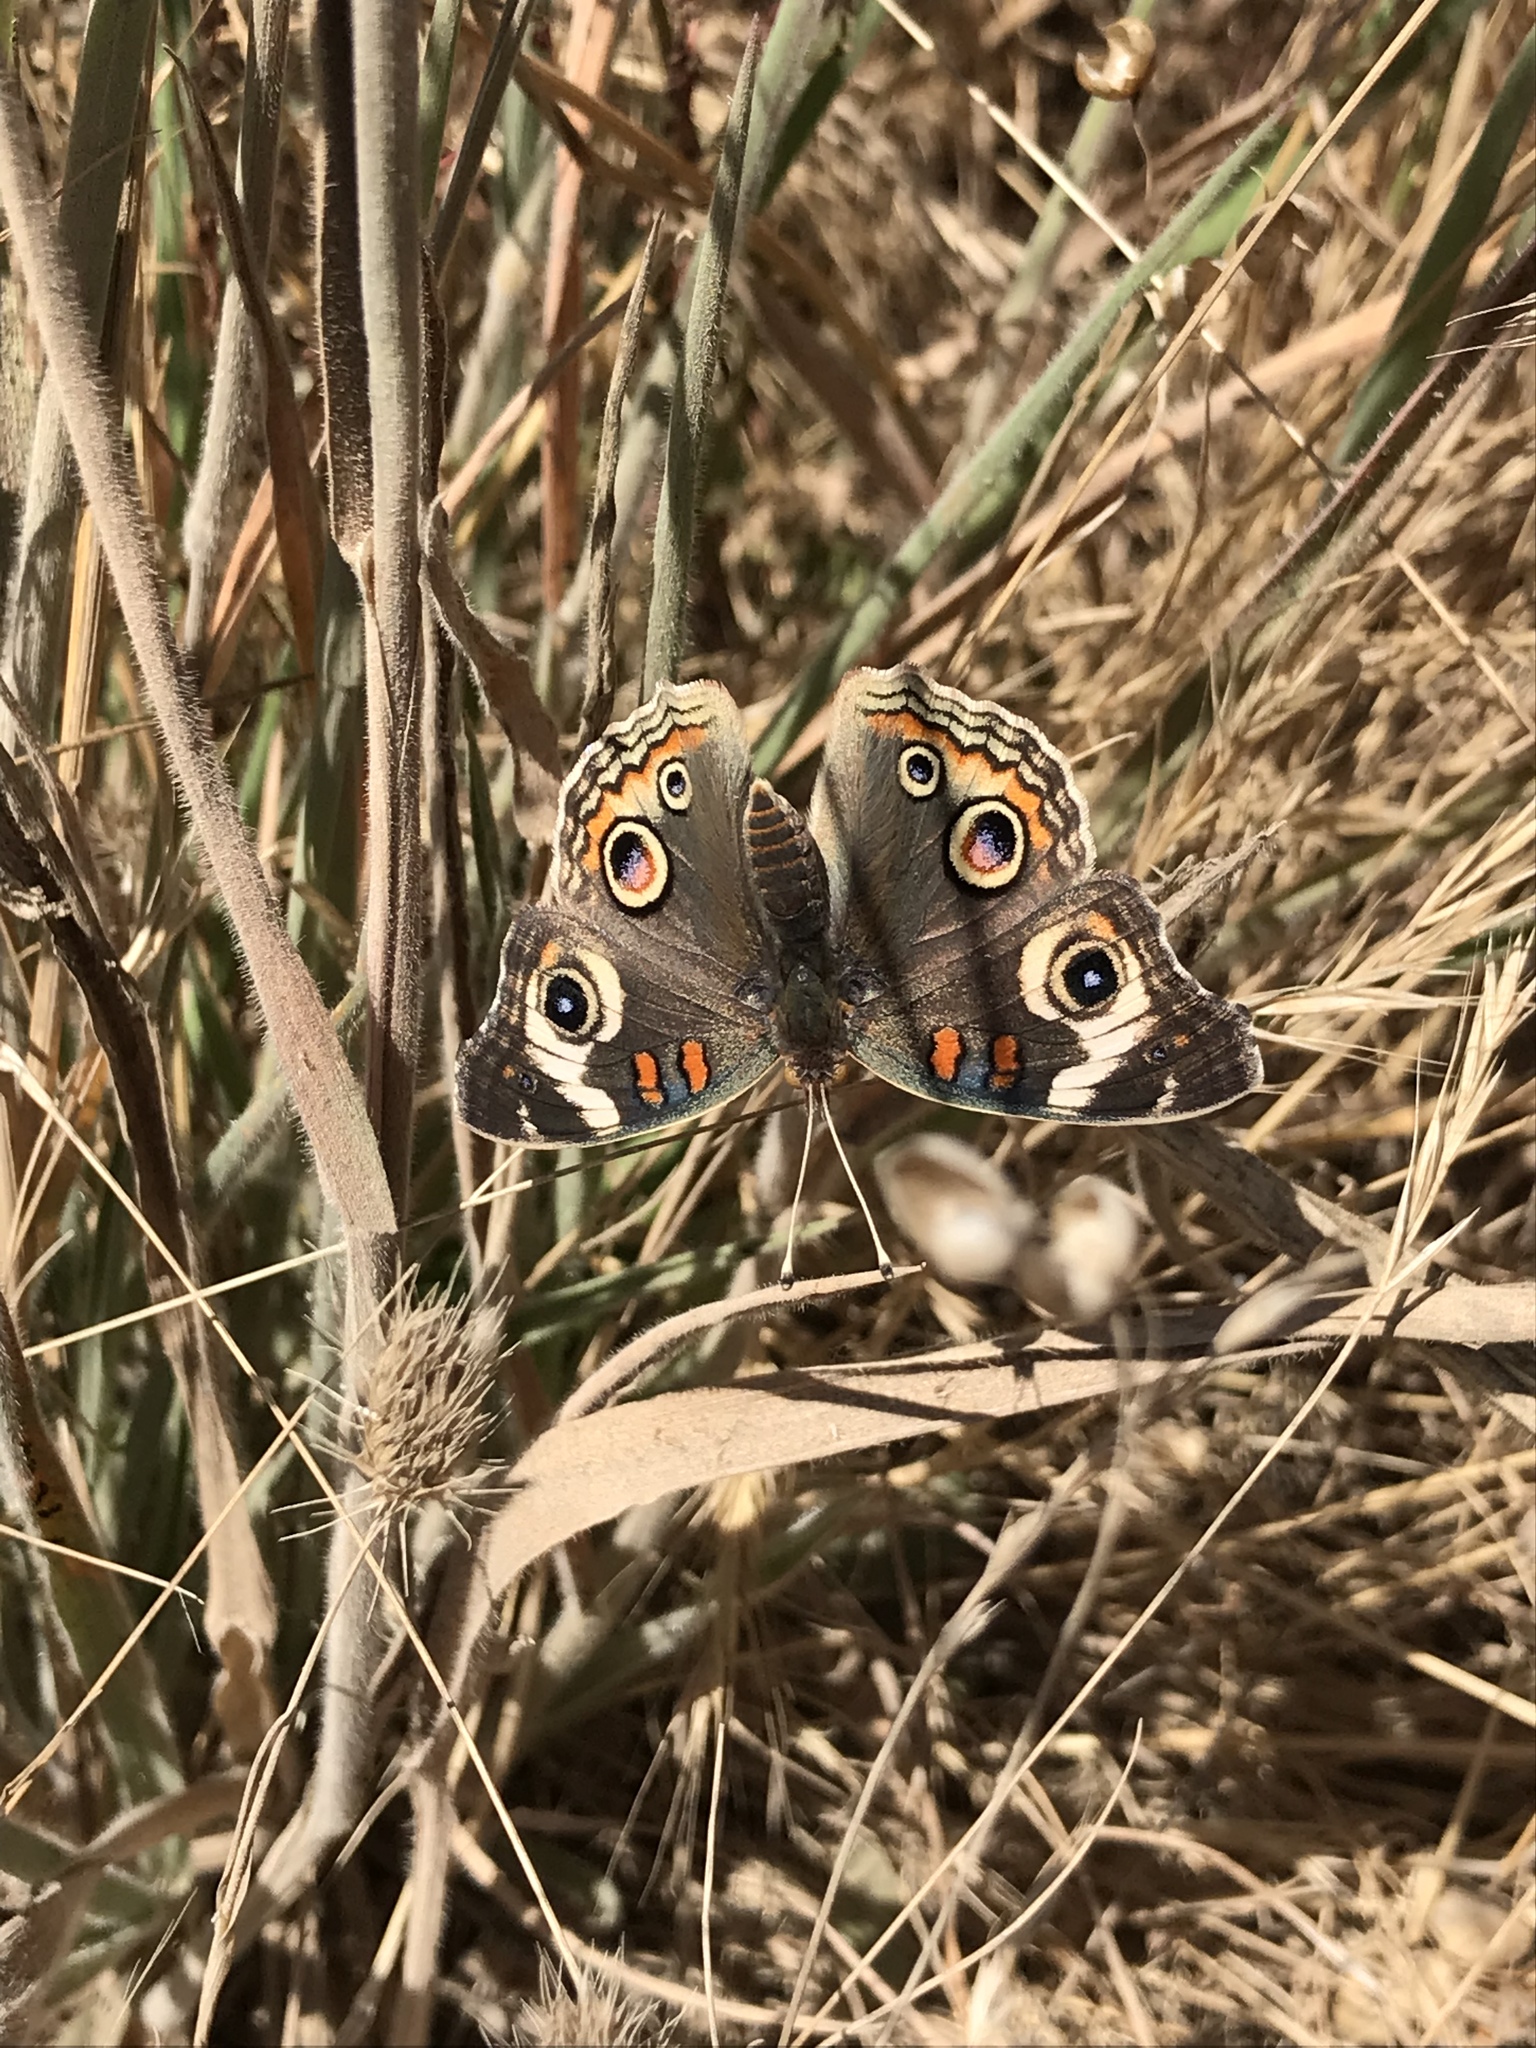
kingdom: Animalia
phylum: Arthropoda
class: Insecta
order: Lepidoptera
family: Nymphalidae
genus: Junonia
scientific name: Junonia grisea
